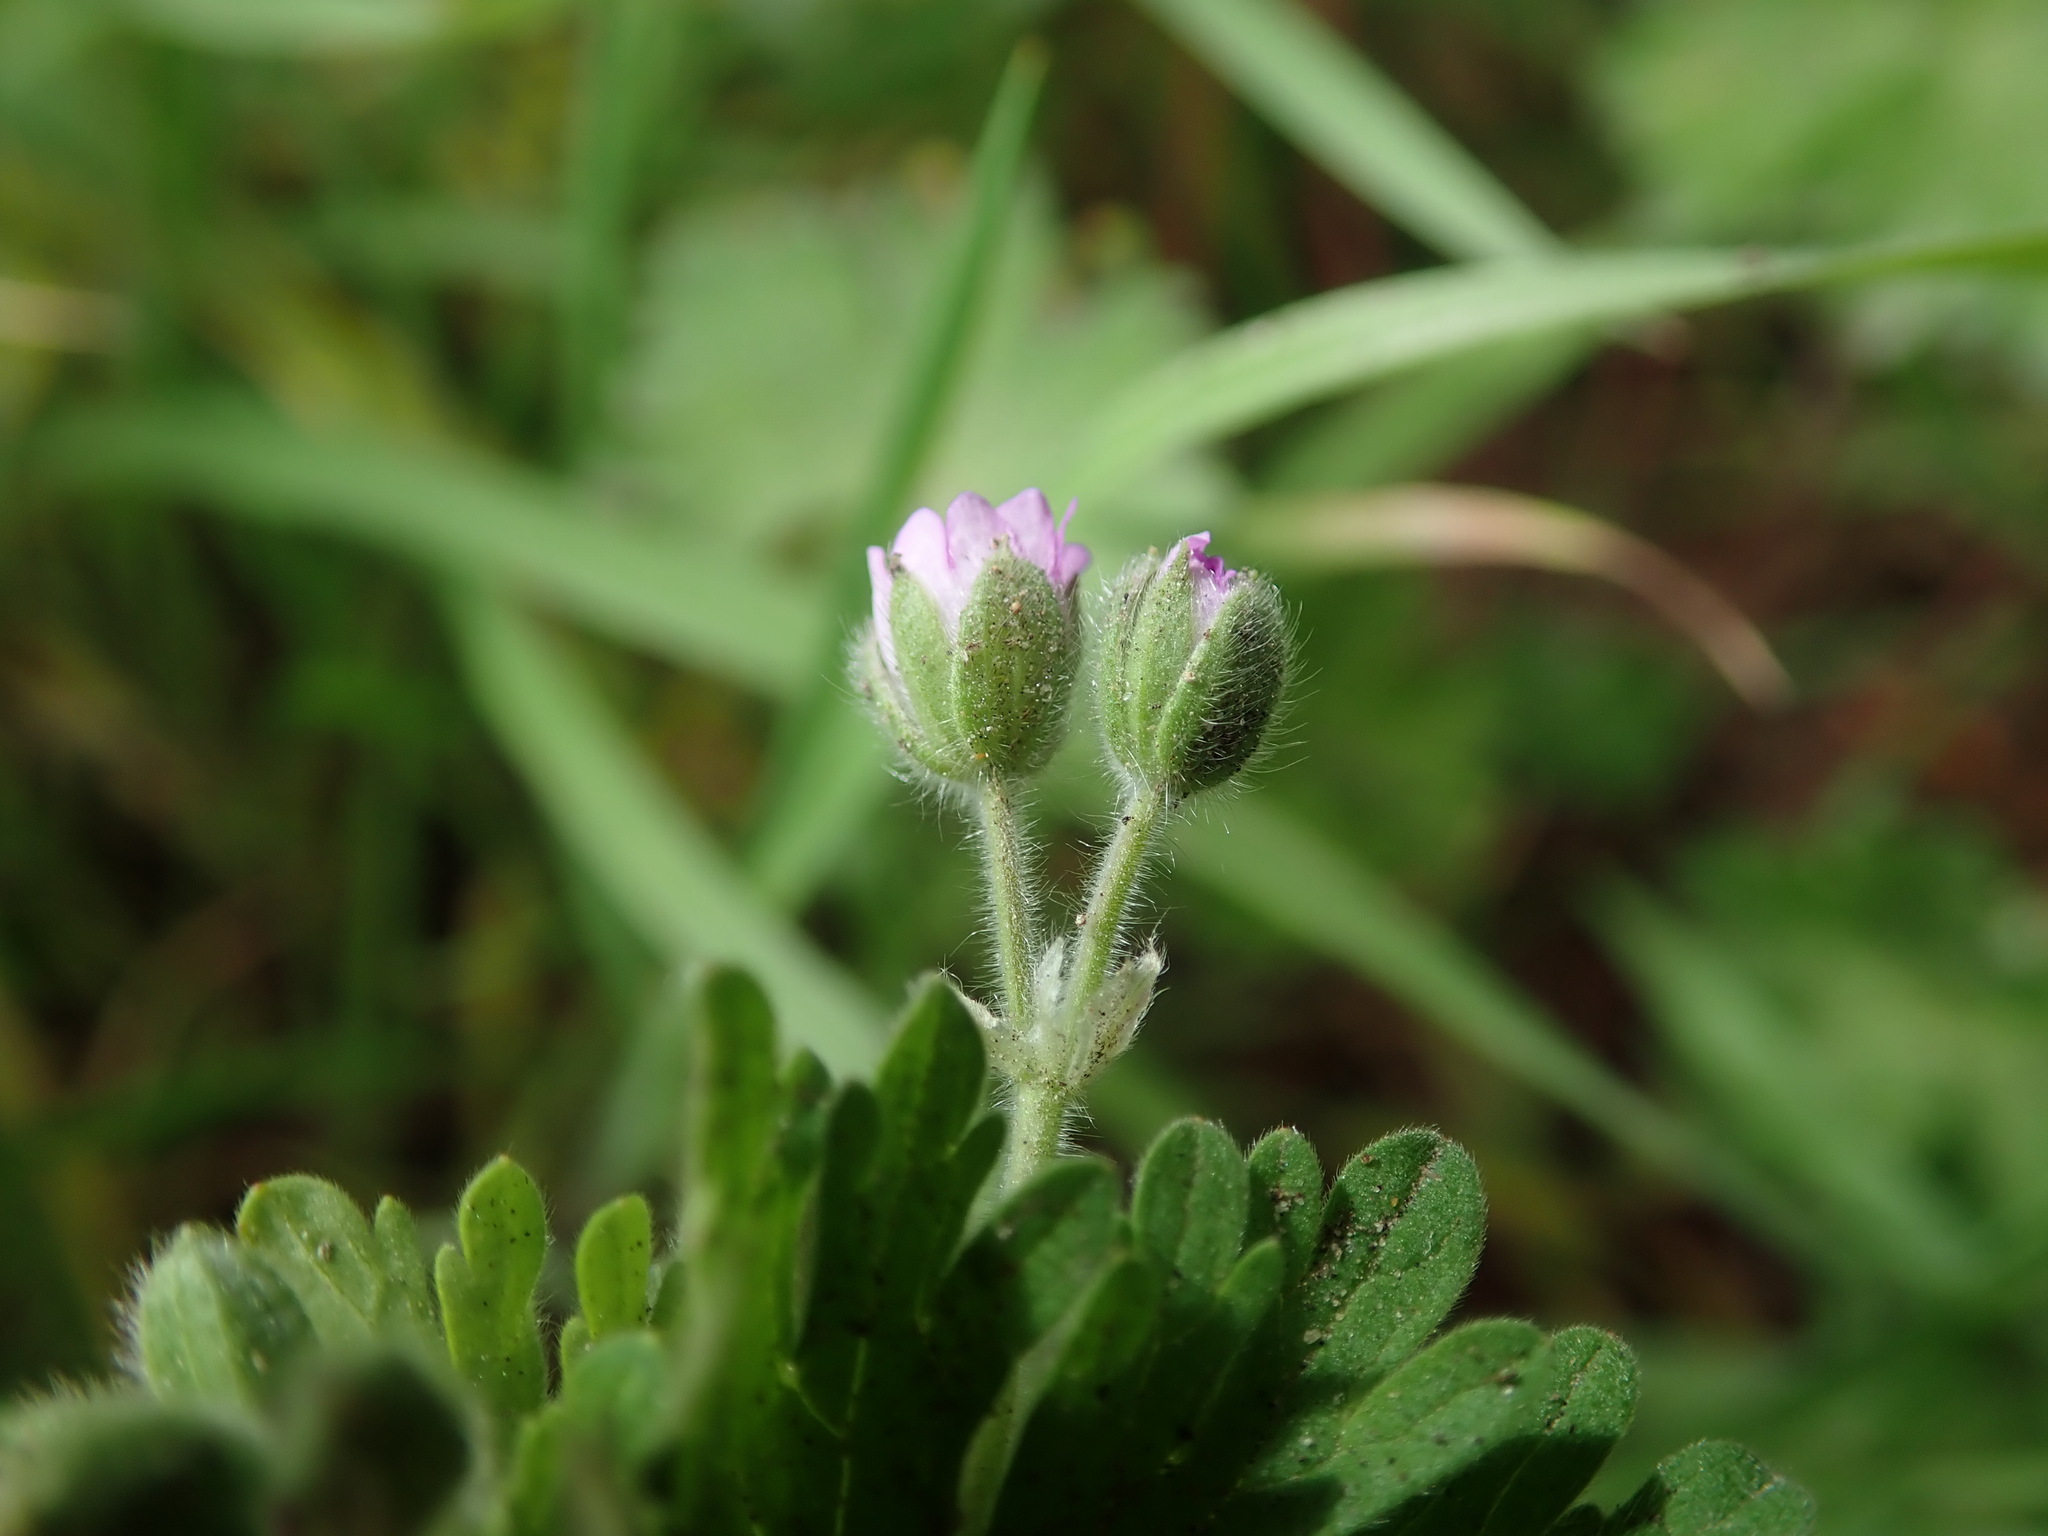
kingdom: Plantae
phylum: Tracheophyta
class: Magnoliopsida
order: Geraniales
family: Geraniaceae
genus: Geranium
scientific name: Geranium molle
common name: Dove's-foot crane's-bill
